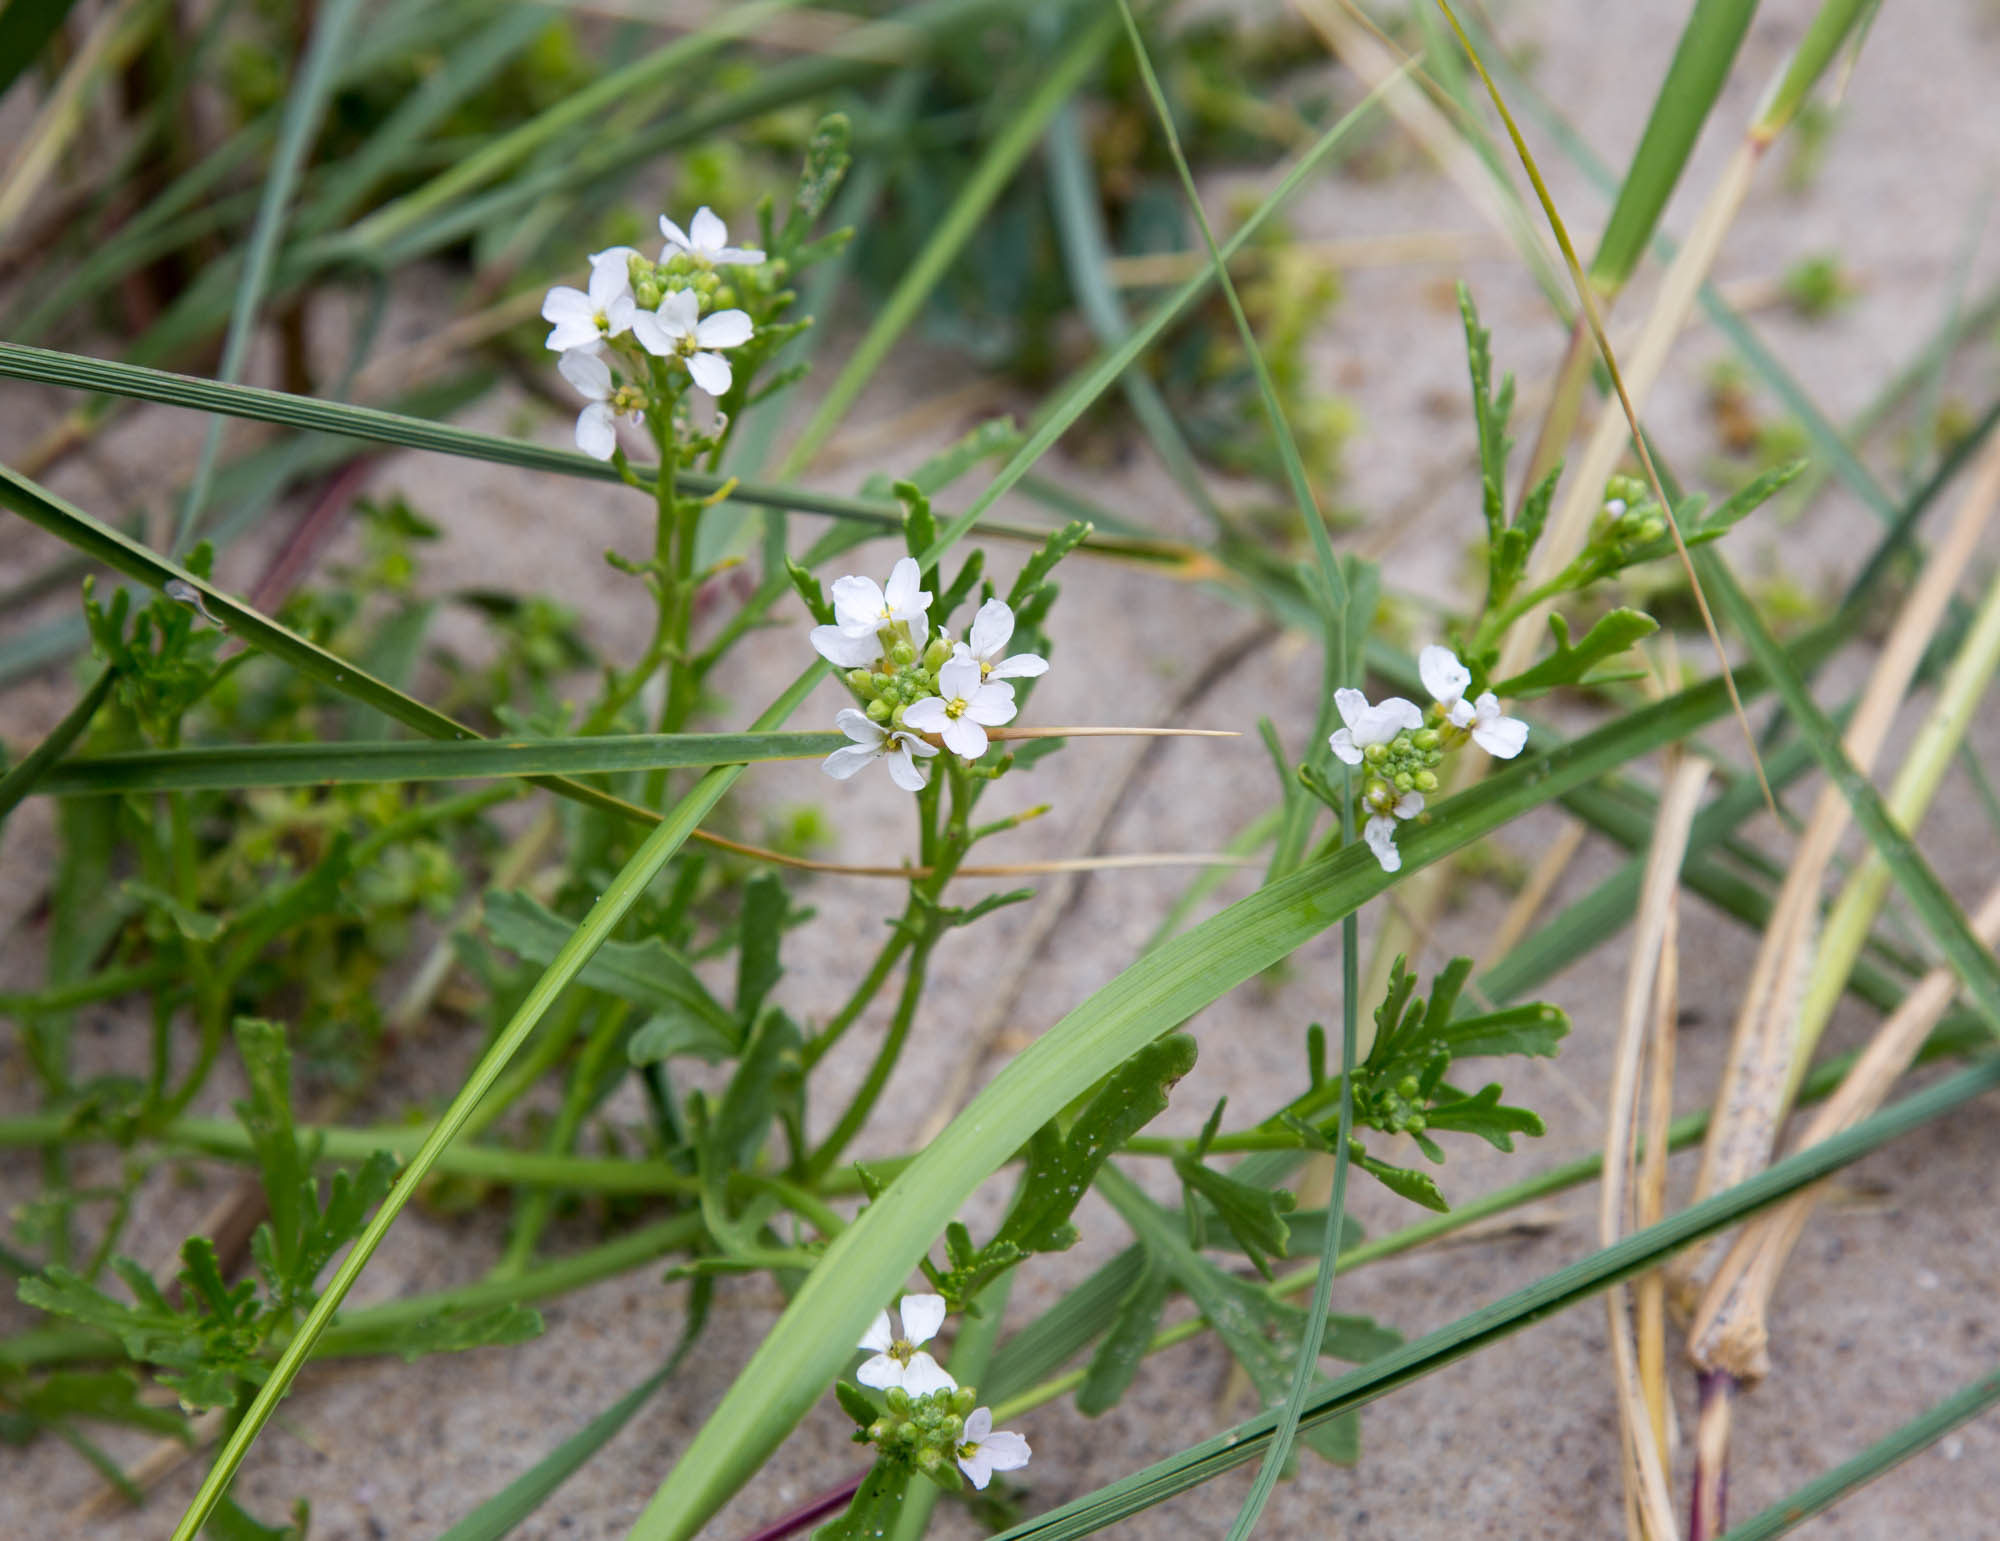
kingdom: Plantae
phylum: Tracheophyta
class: Magnoliopsida
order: Brassicales
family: Brassicaceae
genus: Cakile
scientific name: Cakile maritima
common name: Sea rocket
